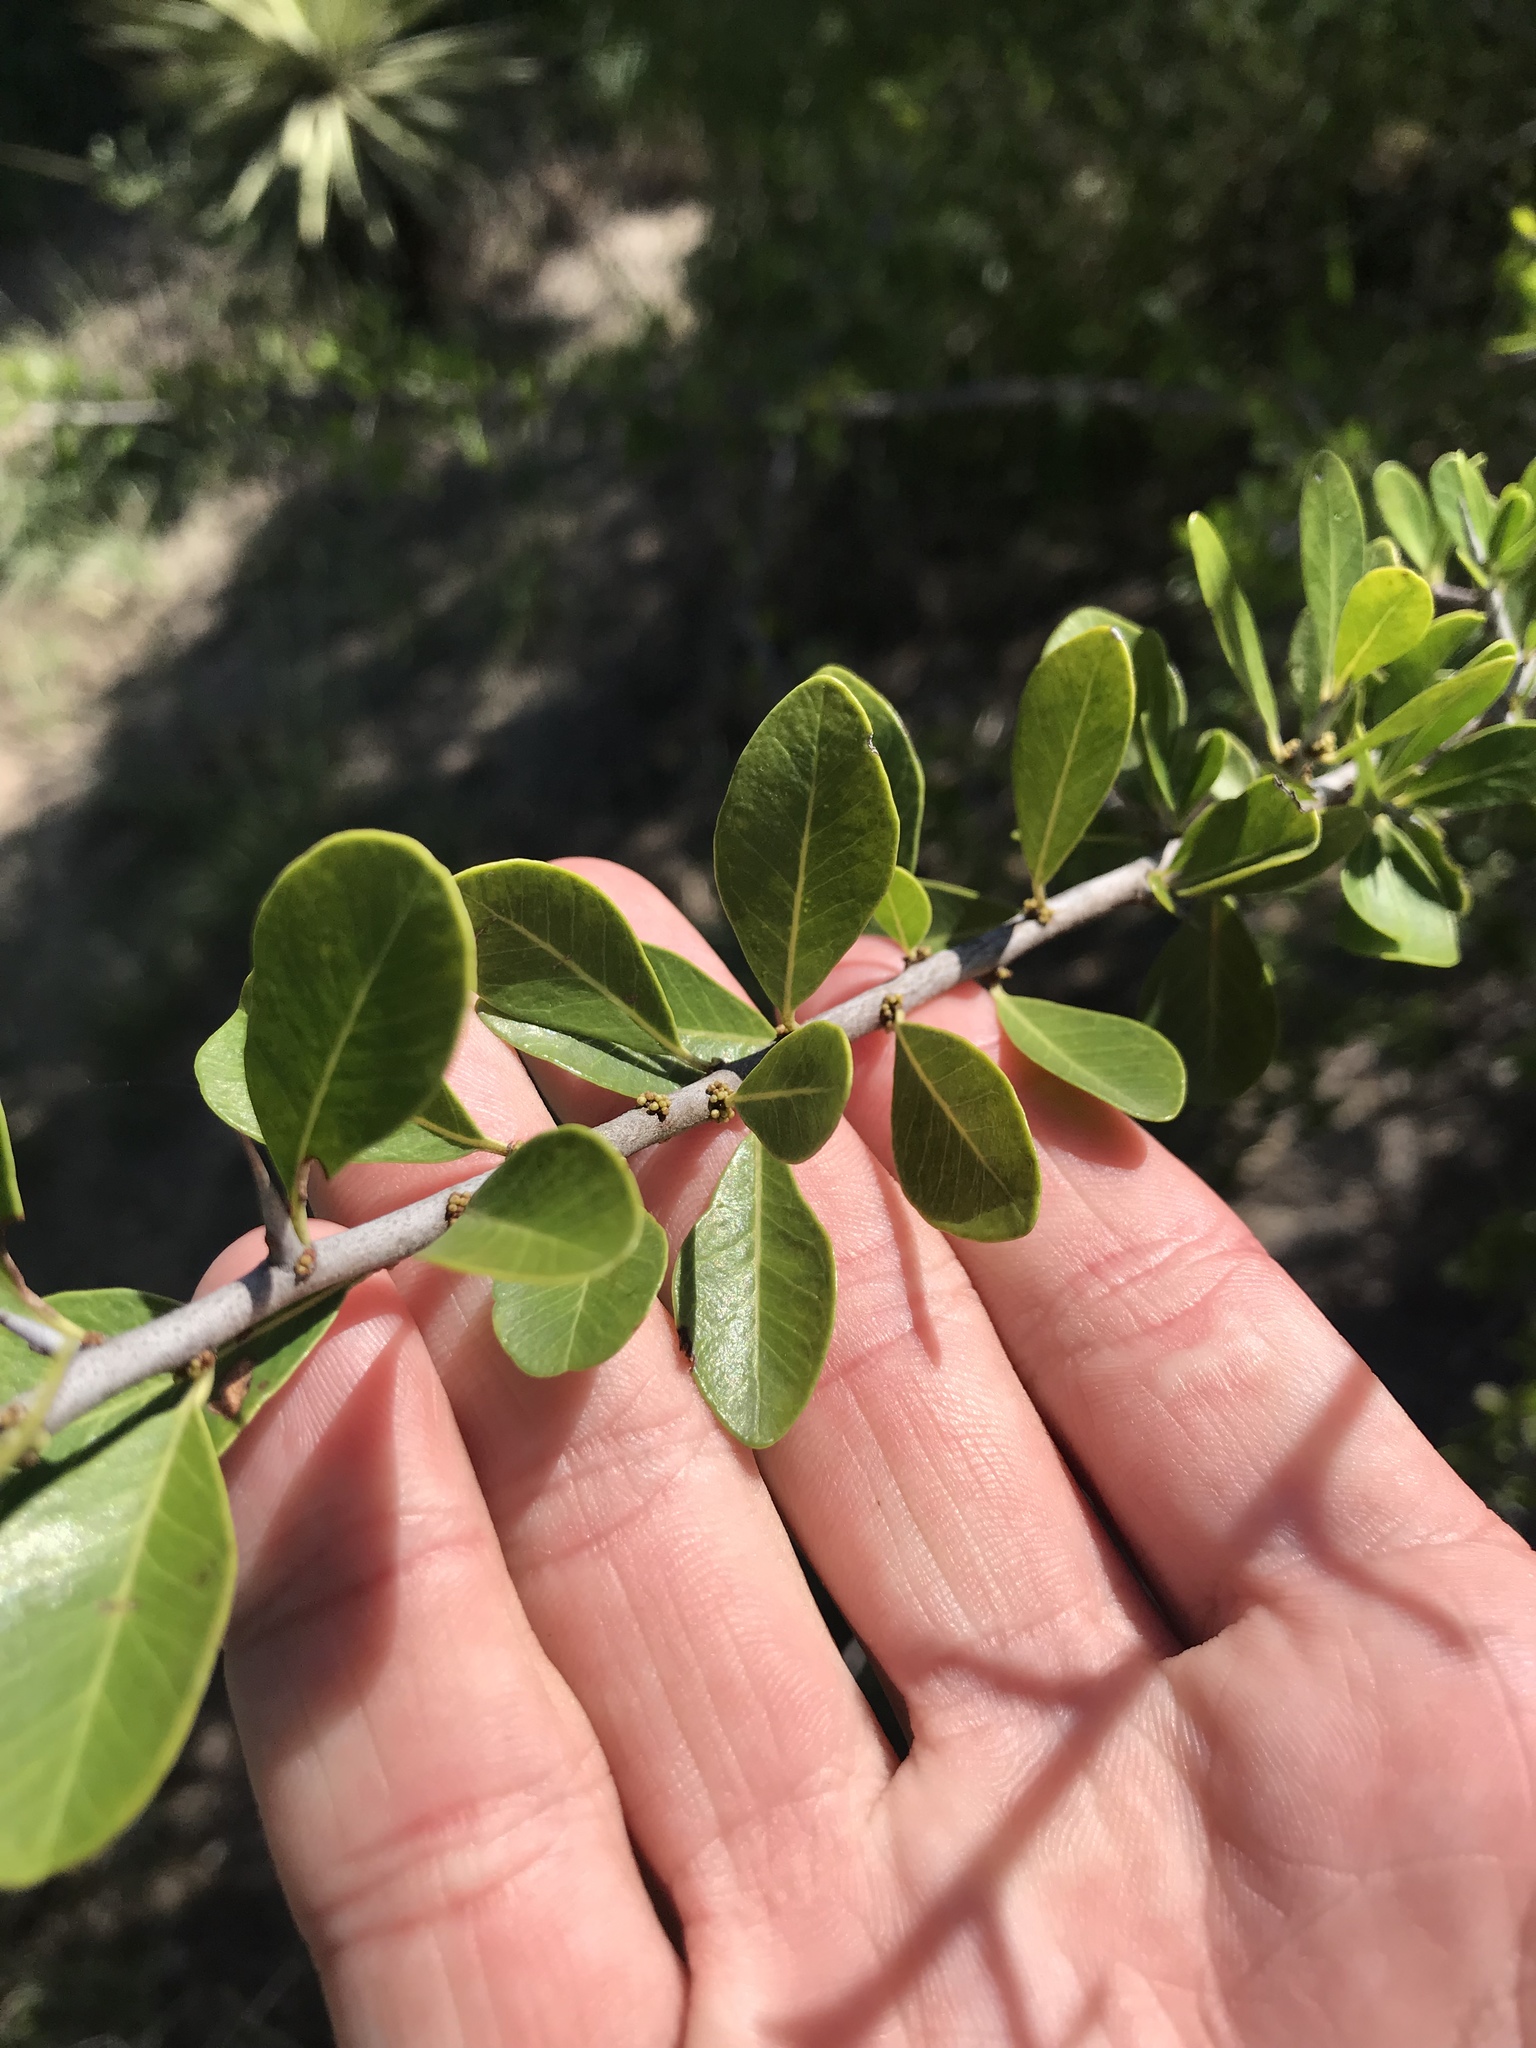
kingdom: Plantae
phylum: Tracheophyta
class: Magnoliopsida
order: Ericales
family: Sapotaceae
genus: Sideroxylon
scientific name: Sideroxylon celastrinum
